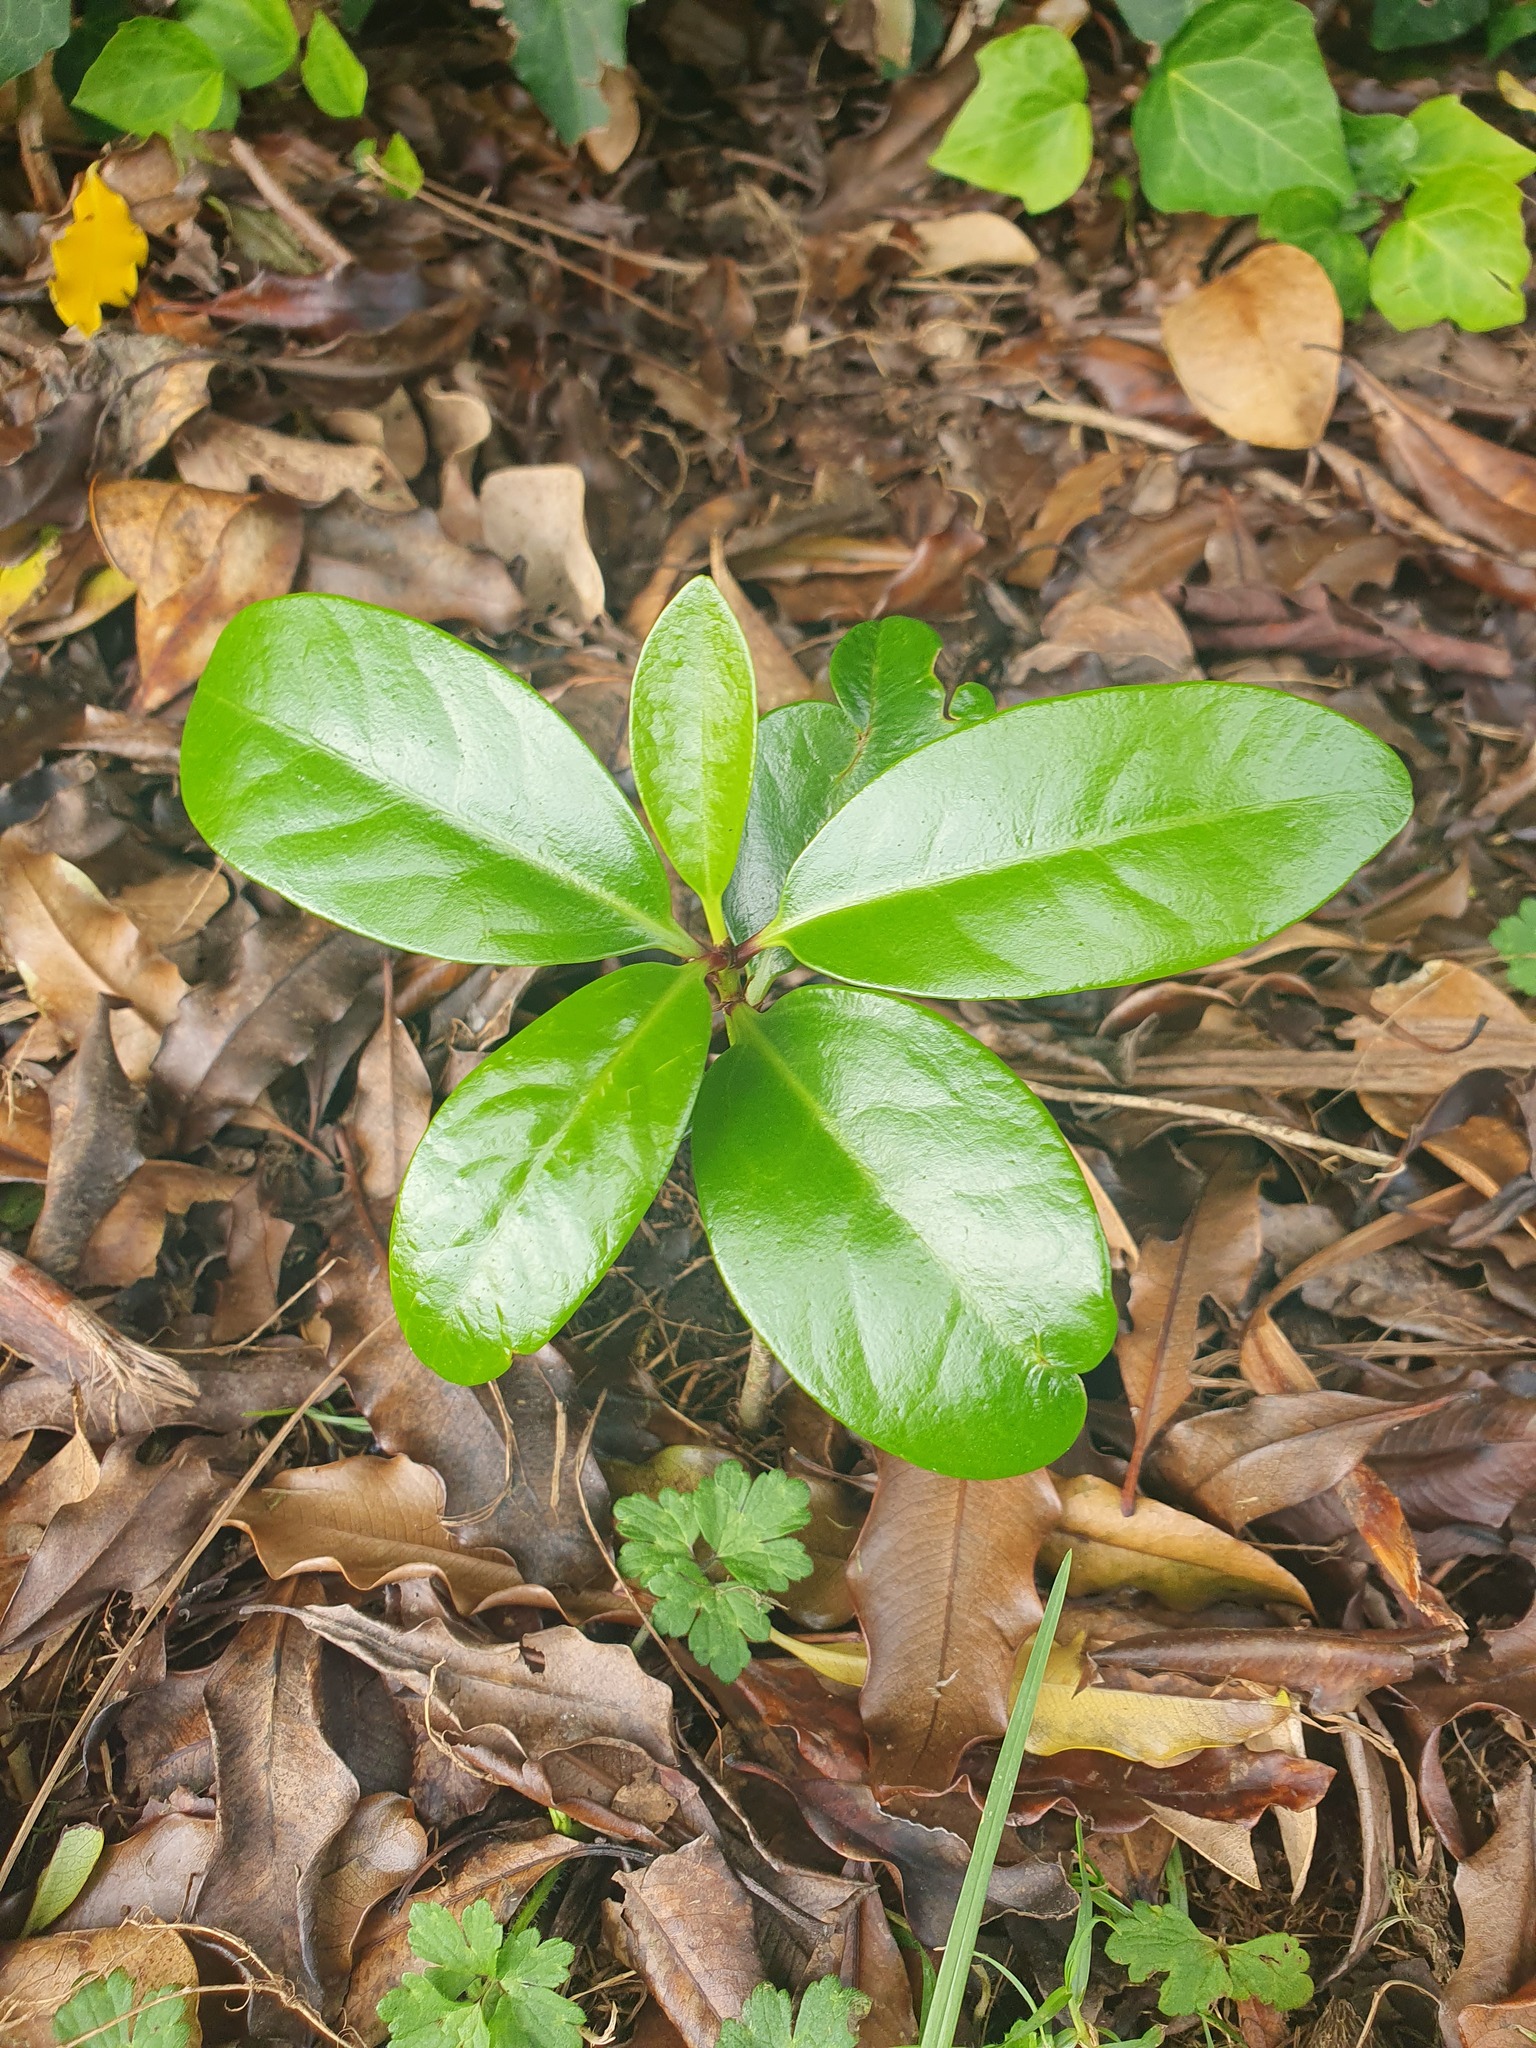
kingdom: Plantae
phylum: Tracheophyta
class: Magnoliopsida
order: Cucurbitales
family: Corynocarpaceae
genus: Corynocarpus
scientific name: Corynocarpus laevigatus
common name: New zealand laurel
